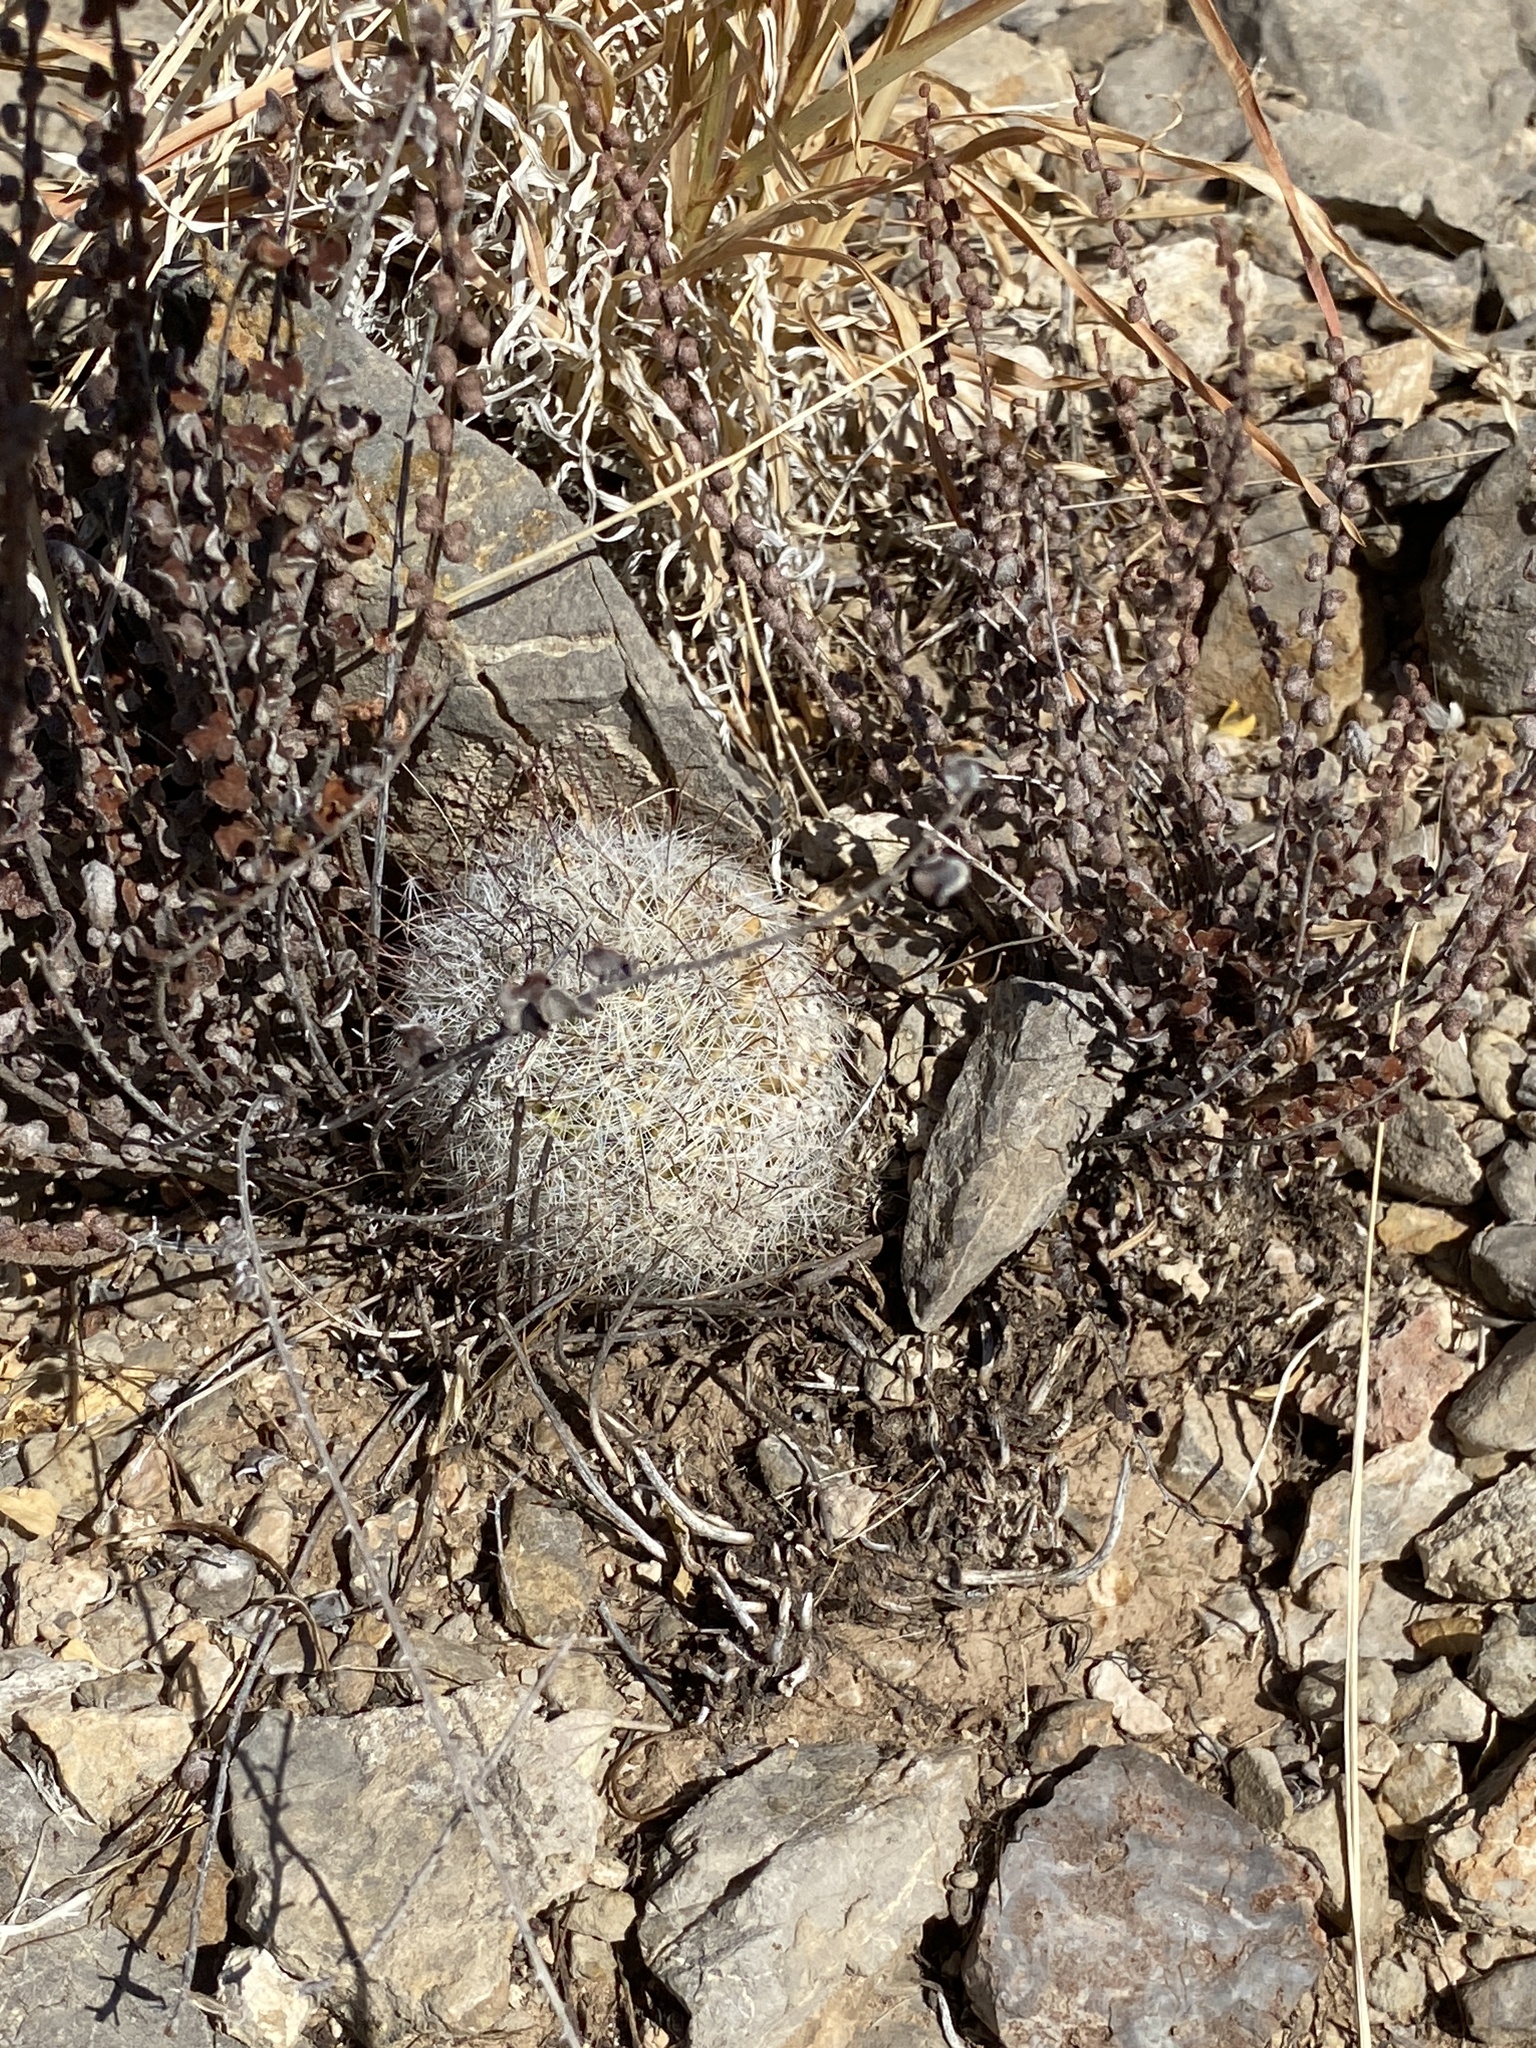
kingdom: Plantae
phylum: Tracheophyta
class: Magnoliopsida
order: Caryophyllales
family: Cactaceae
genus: Cochemiea
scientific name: Cochemiea grahamii
